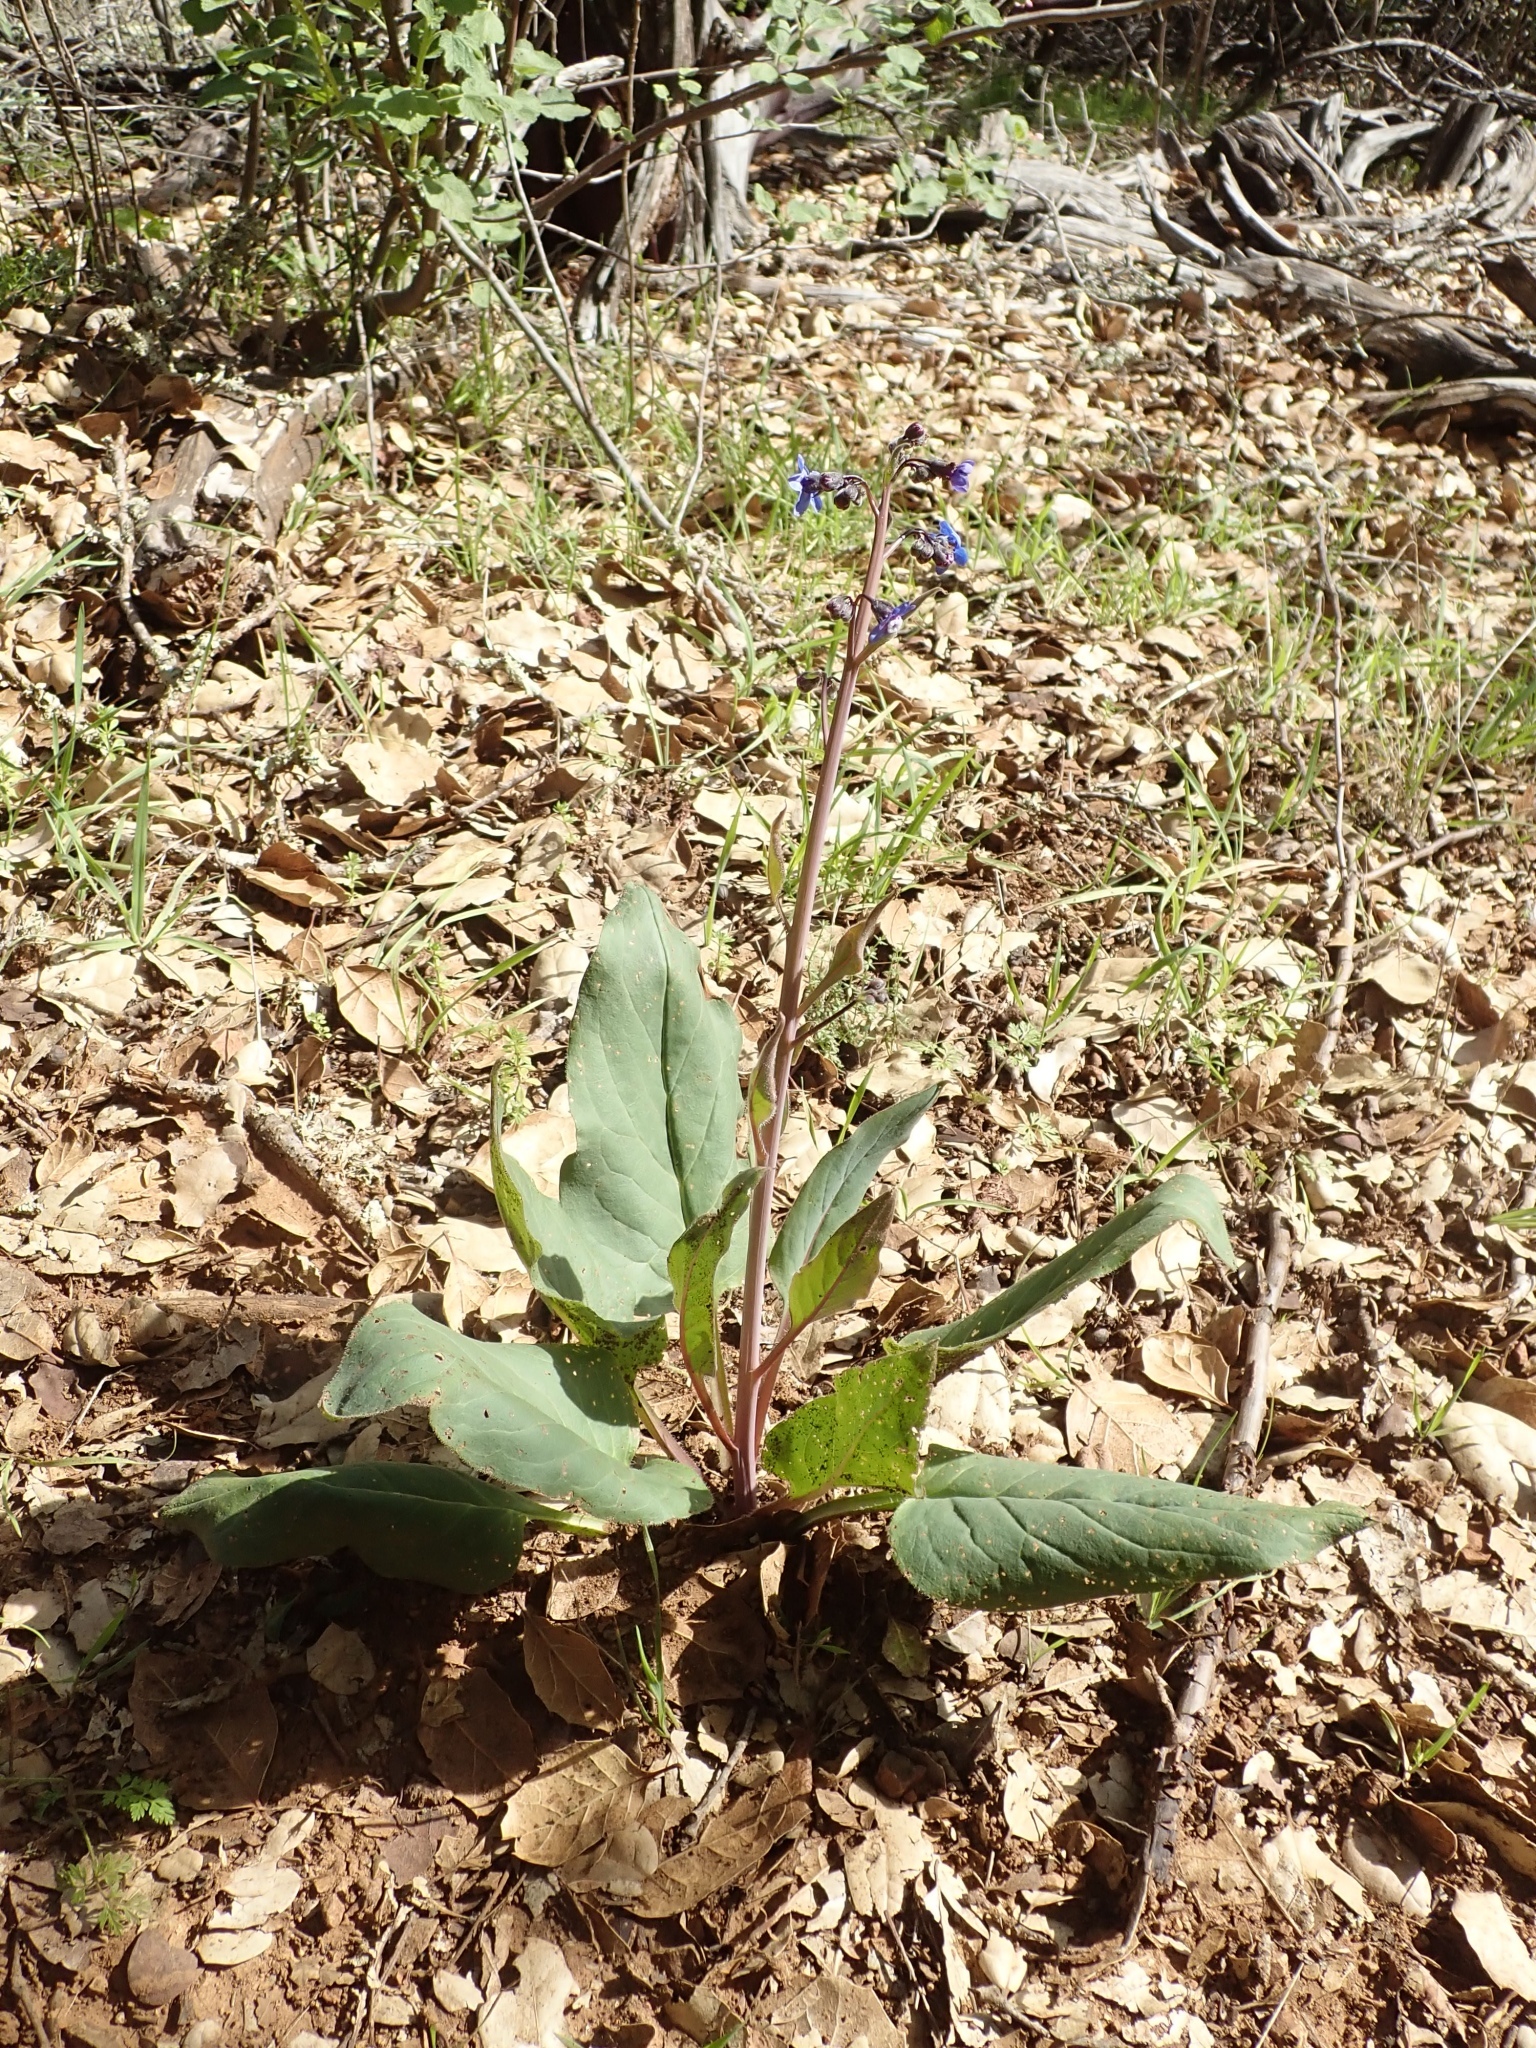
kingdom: Plantae
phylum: Tracheophyta
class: Magnoliopsida
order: Boraginales
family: Boraginaceae
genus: Adelinia
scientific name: Adelinia grande
